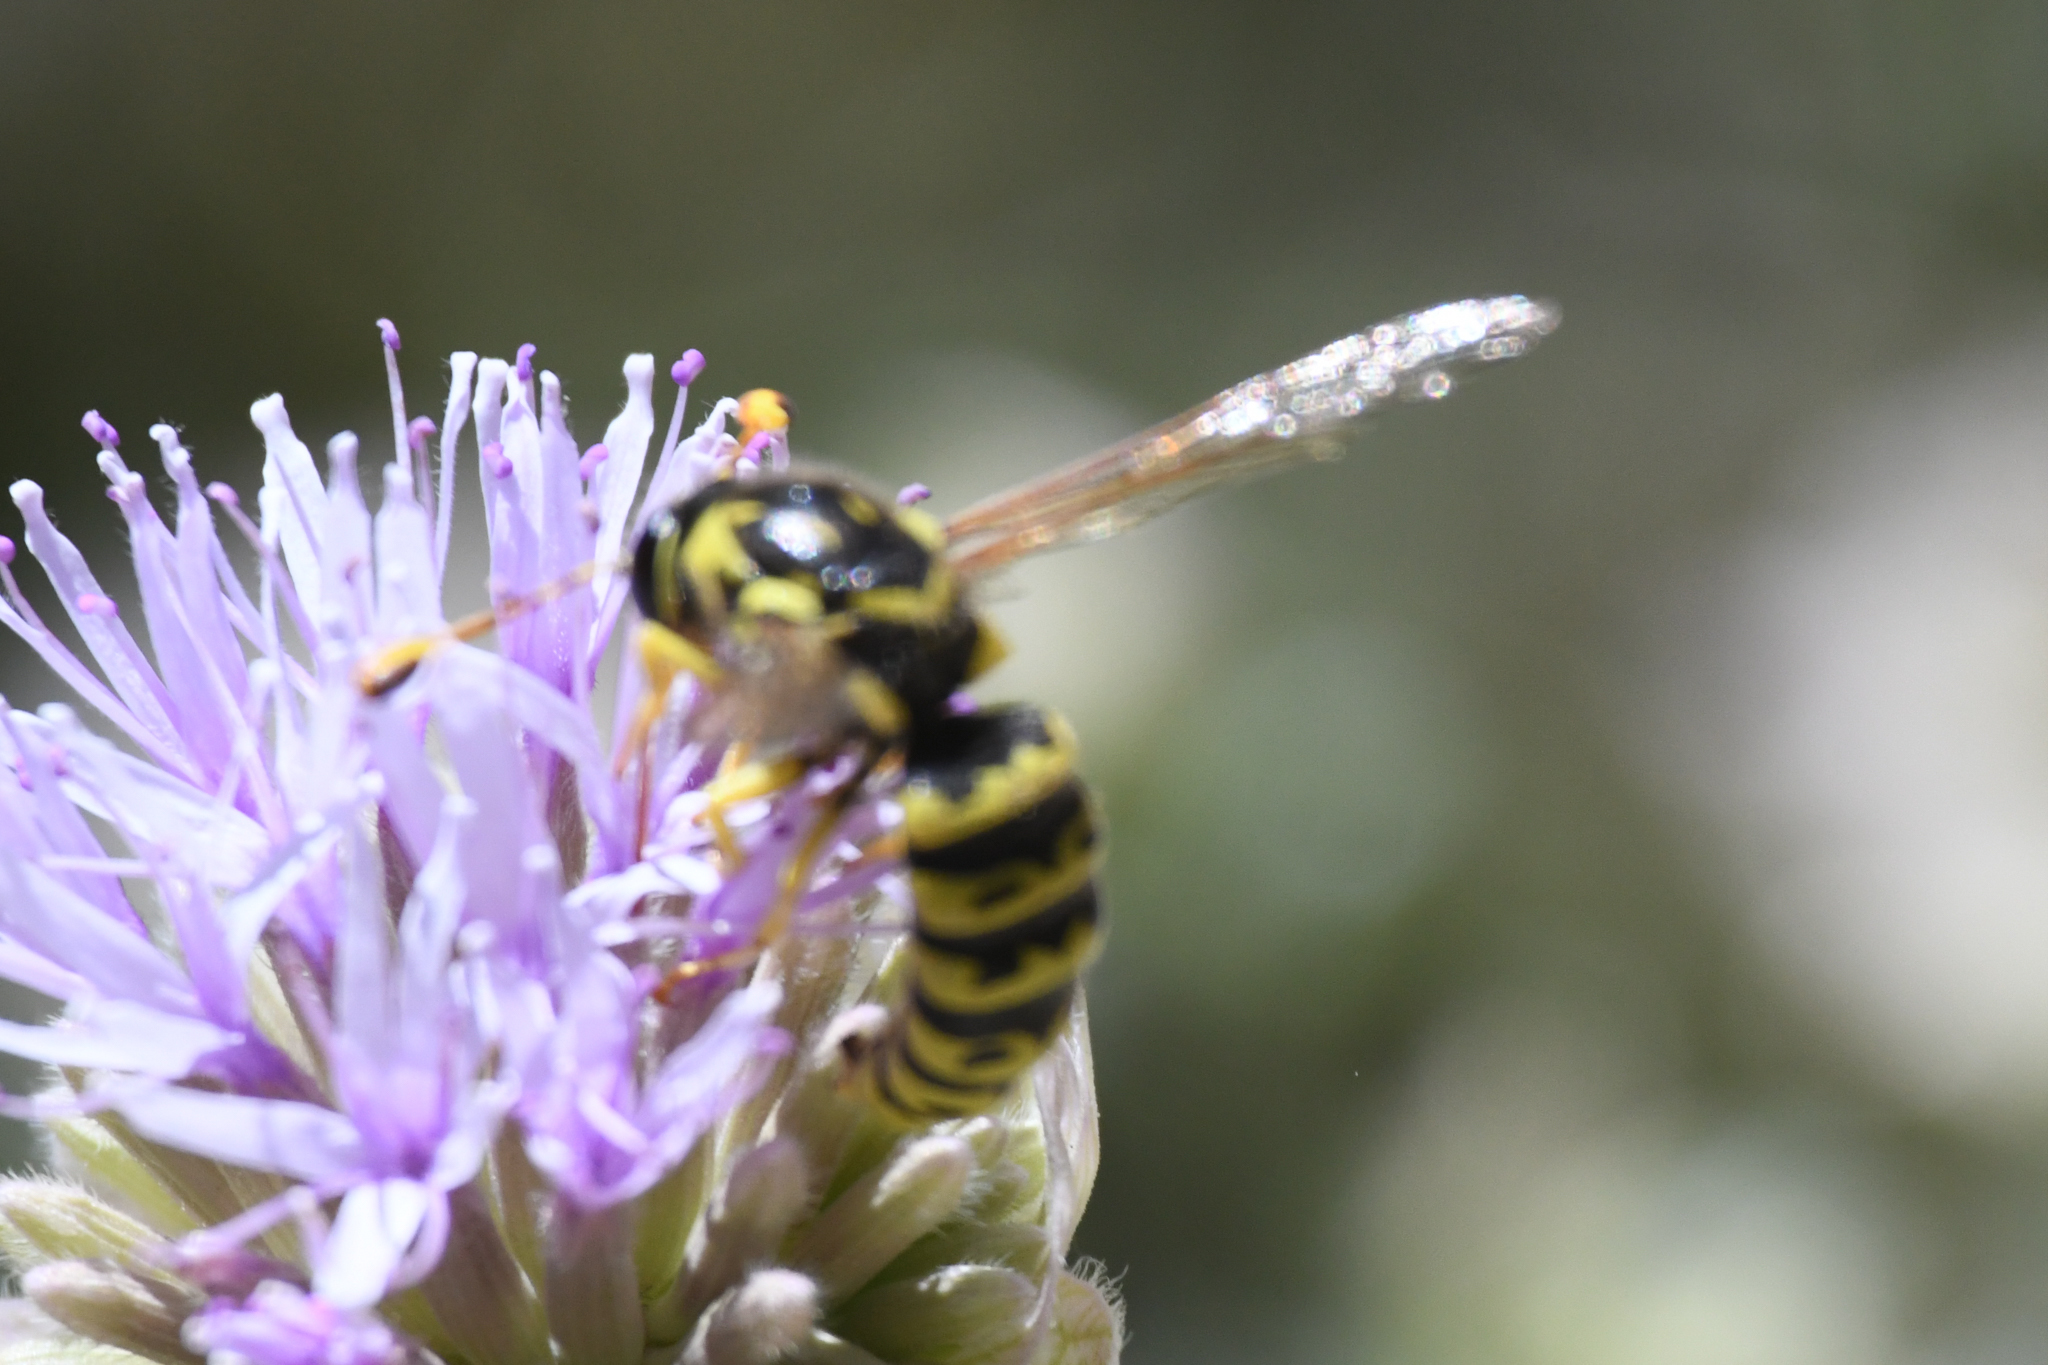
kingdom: Animalia
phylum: Arthropoda
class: Insecta
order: Hymenoptera
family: Masaridae
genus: Pseudomasaris
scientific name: Pseudomasaris wheeleri
